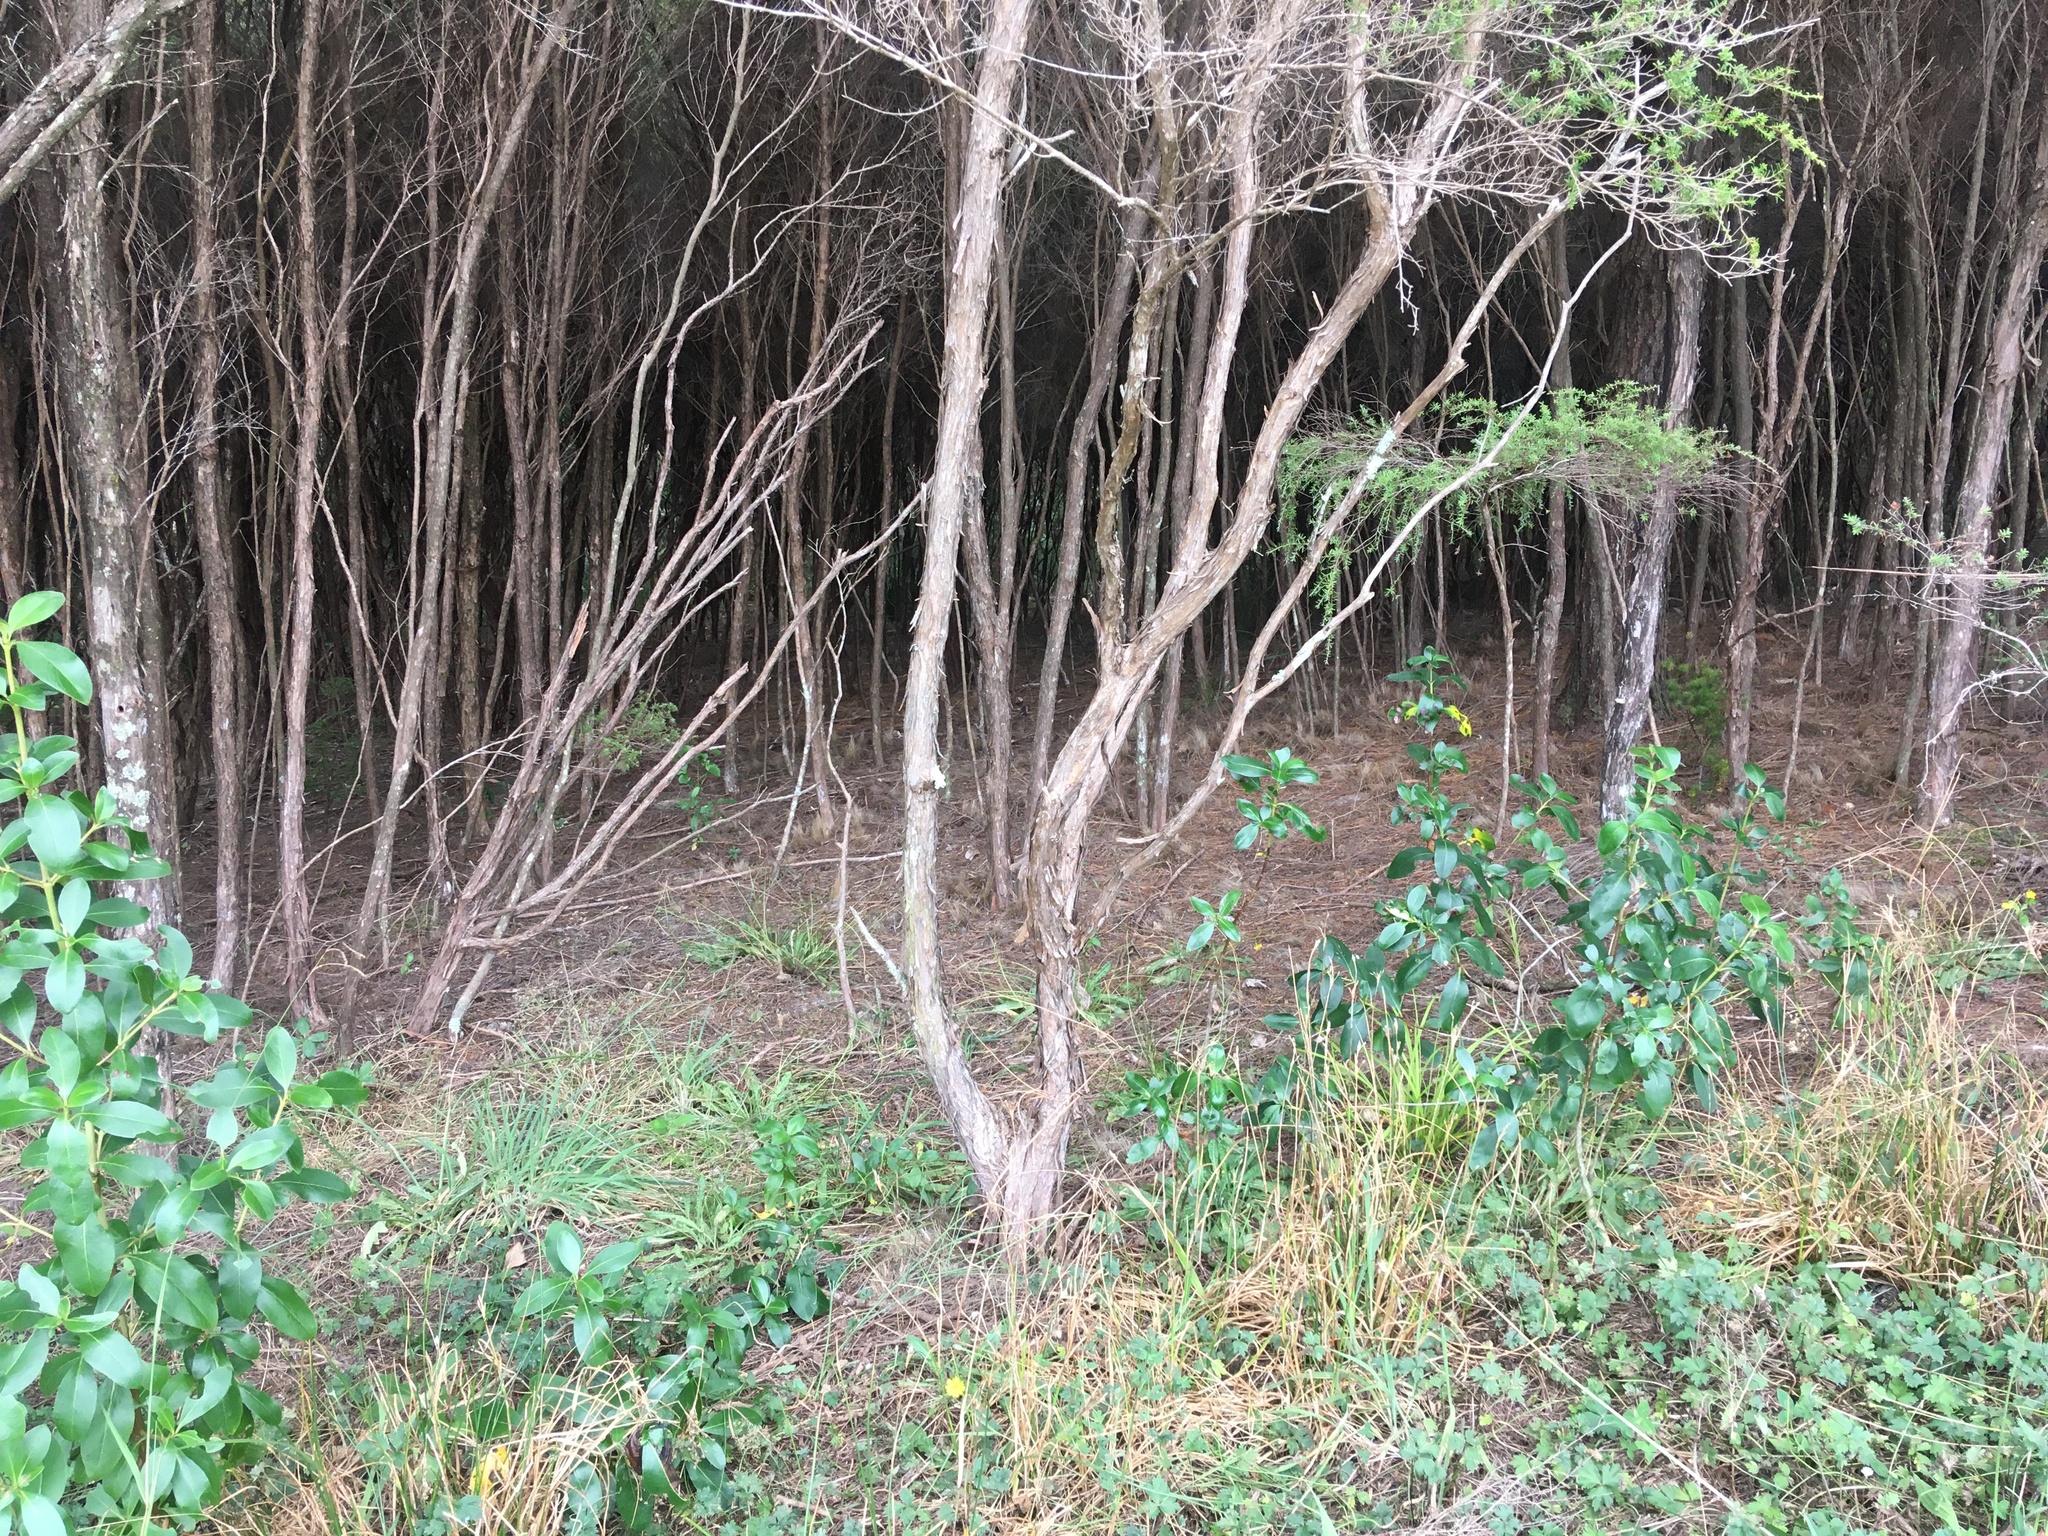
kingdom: Plantae
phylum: Tracheophyta
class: Magnoliopsida
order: Gentianales
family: Rubiaceae
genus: Coprosma
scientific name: Coprosma robusta
